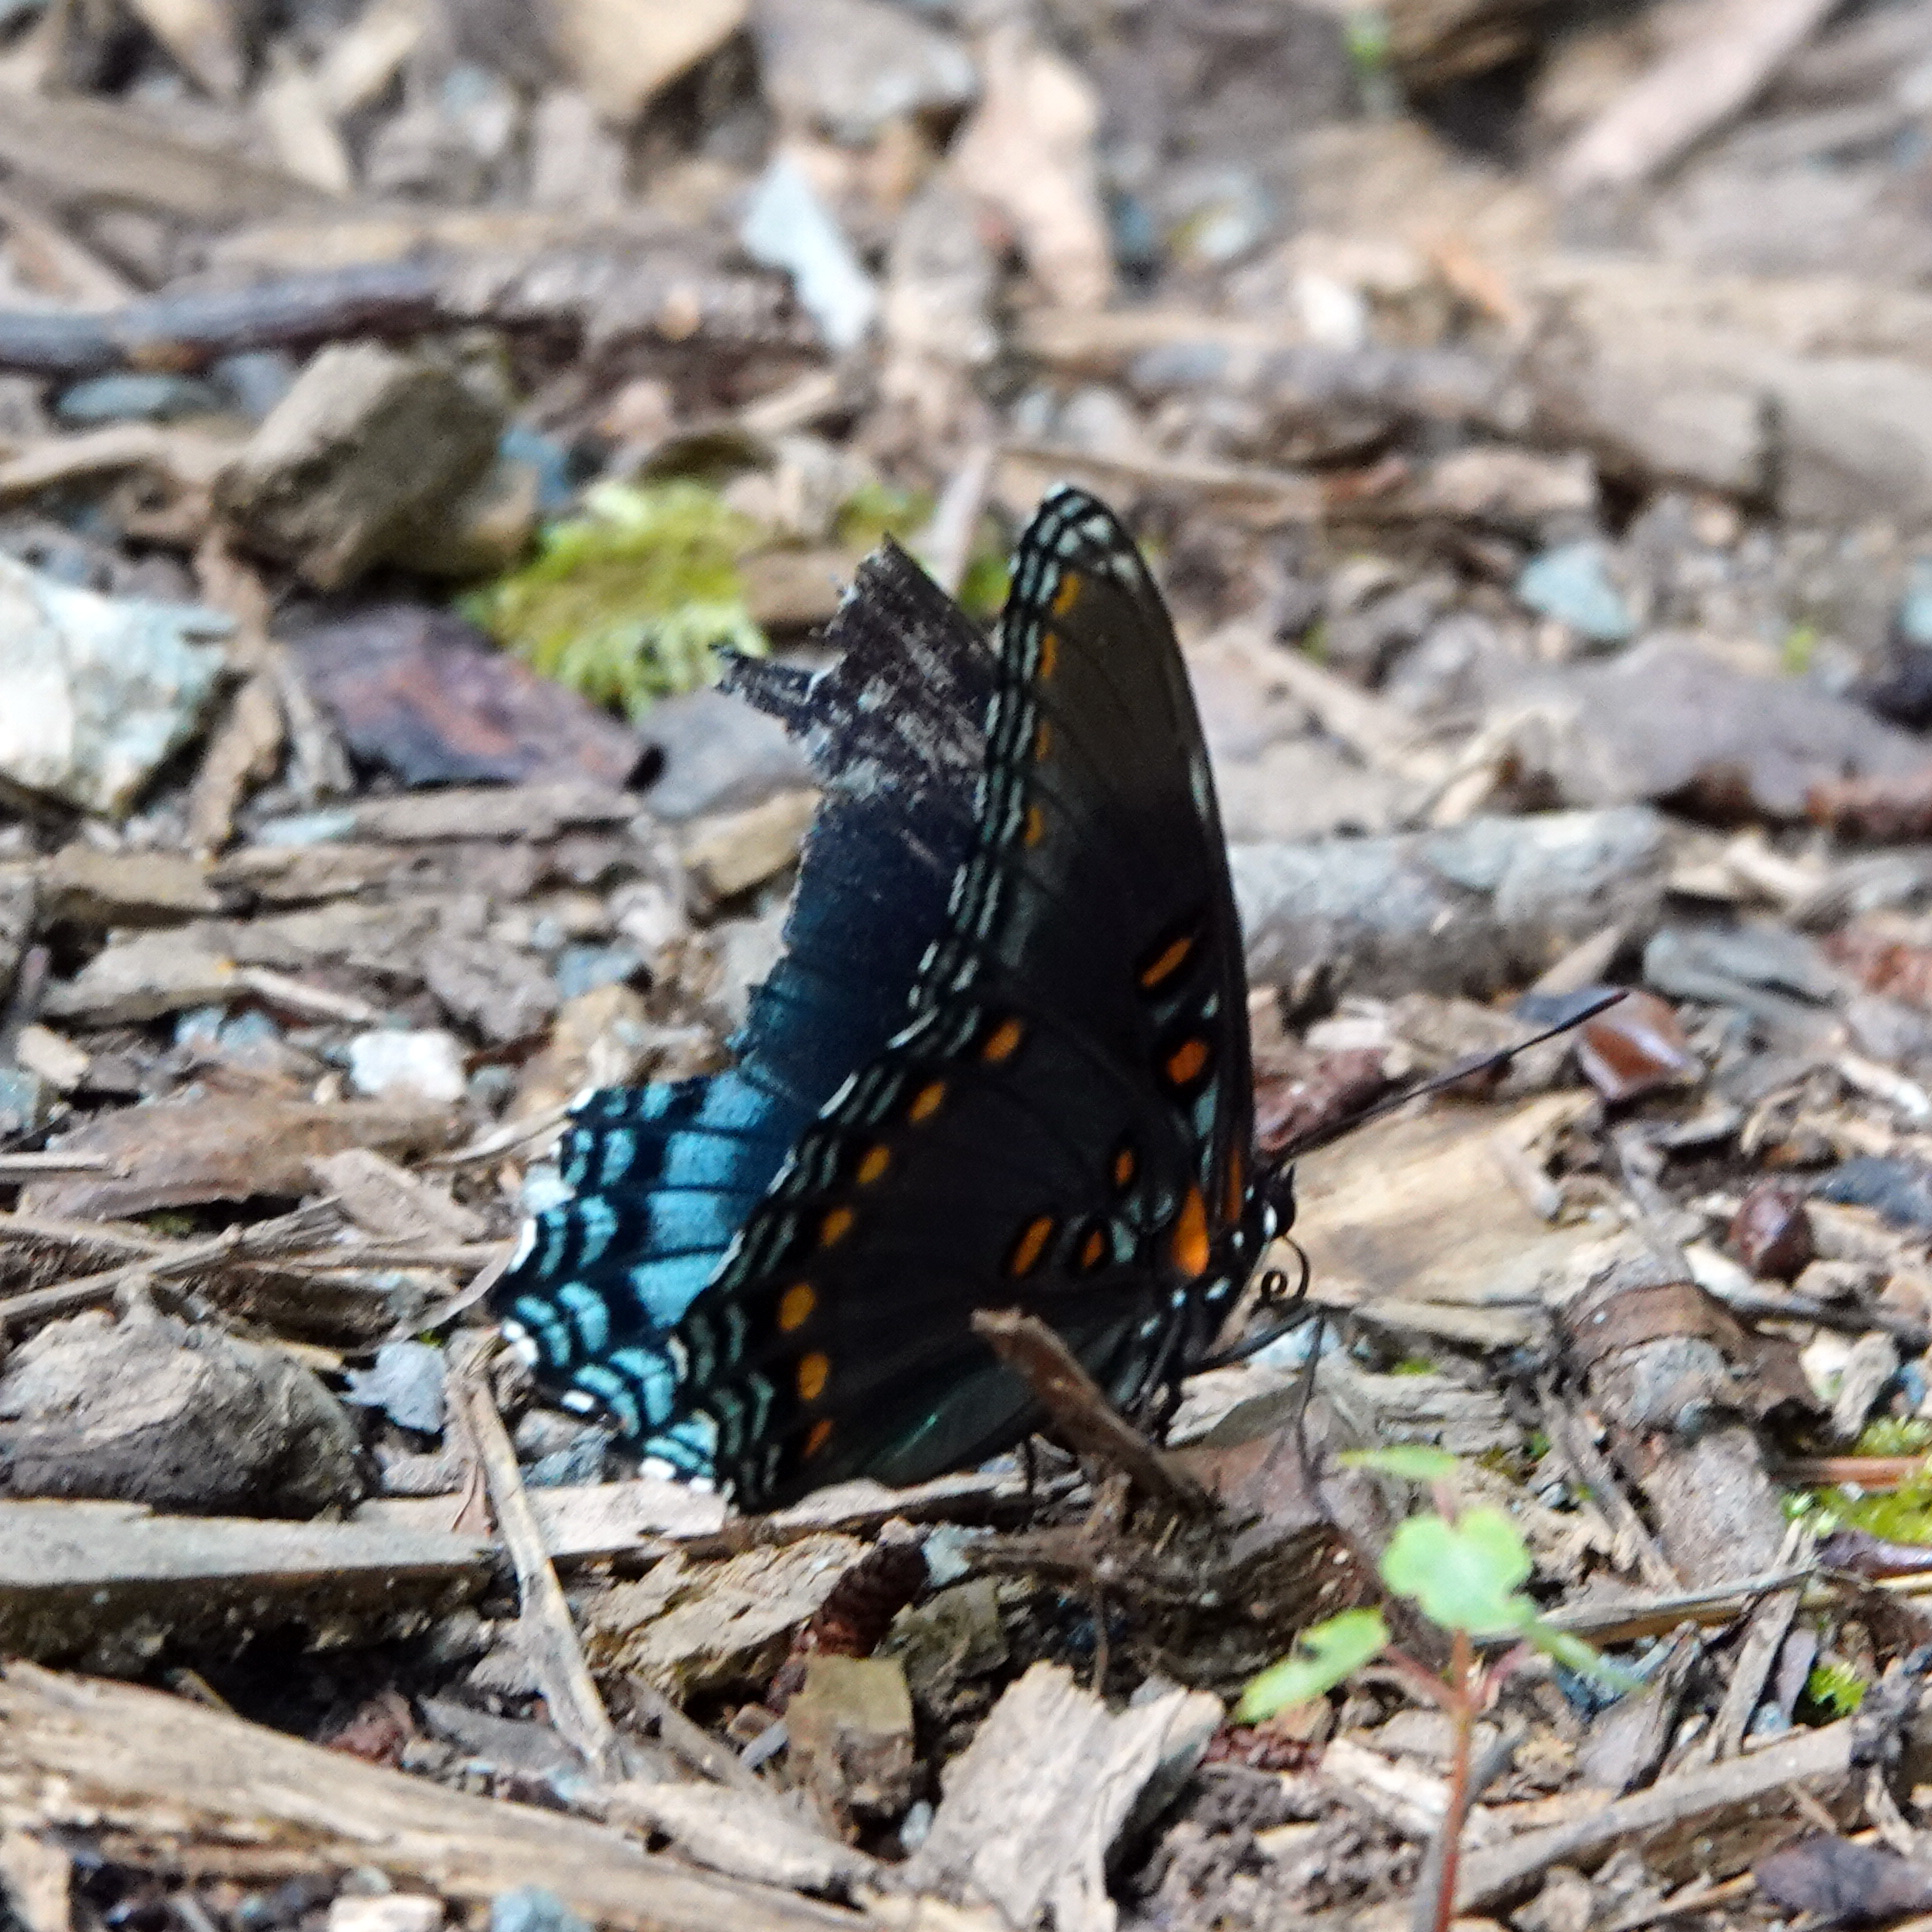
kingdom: Animalia
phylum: Arthropoda
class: Insecta
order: Lepidoptera
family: Nymphalidae
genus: Limenitis
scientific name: Limenitis arthemis
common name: Red-spotted admiral
